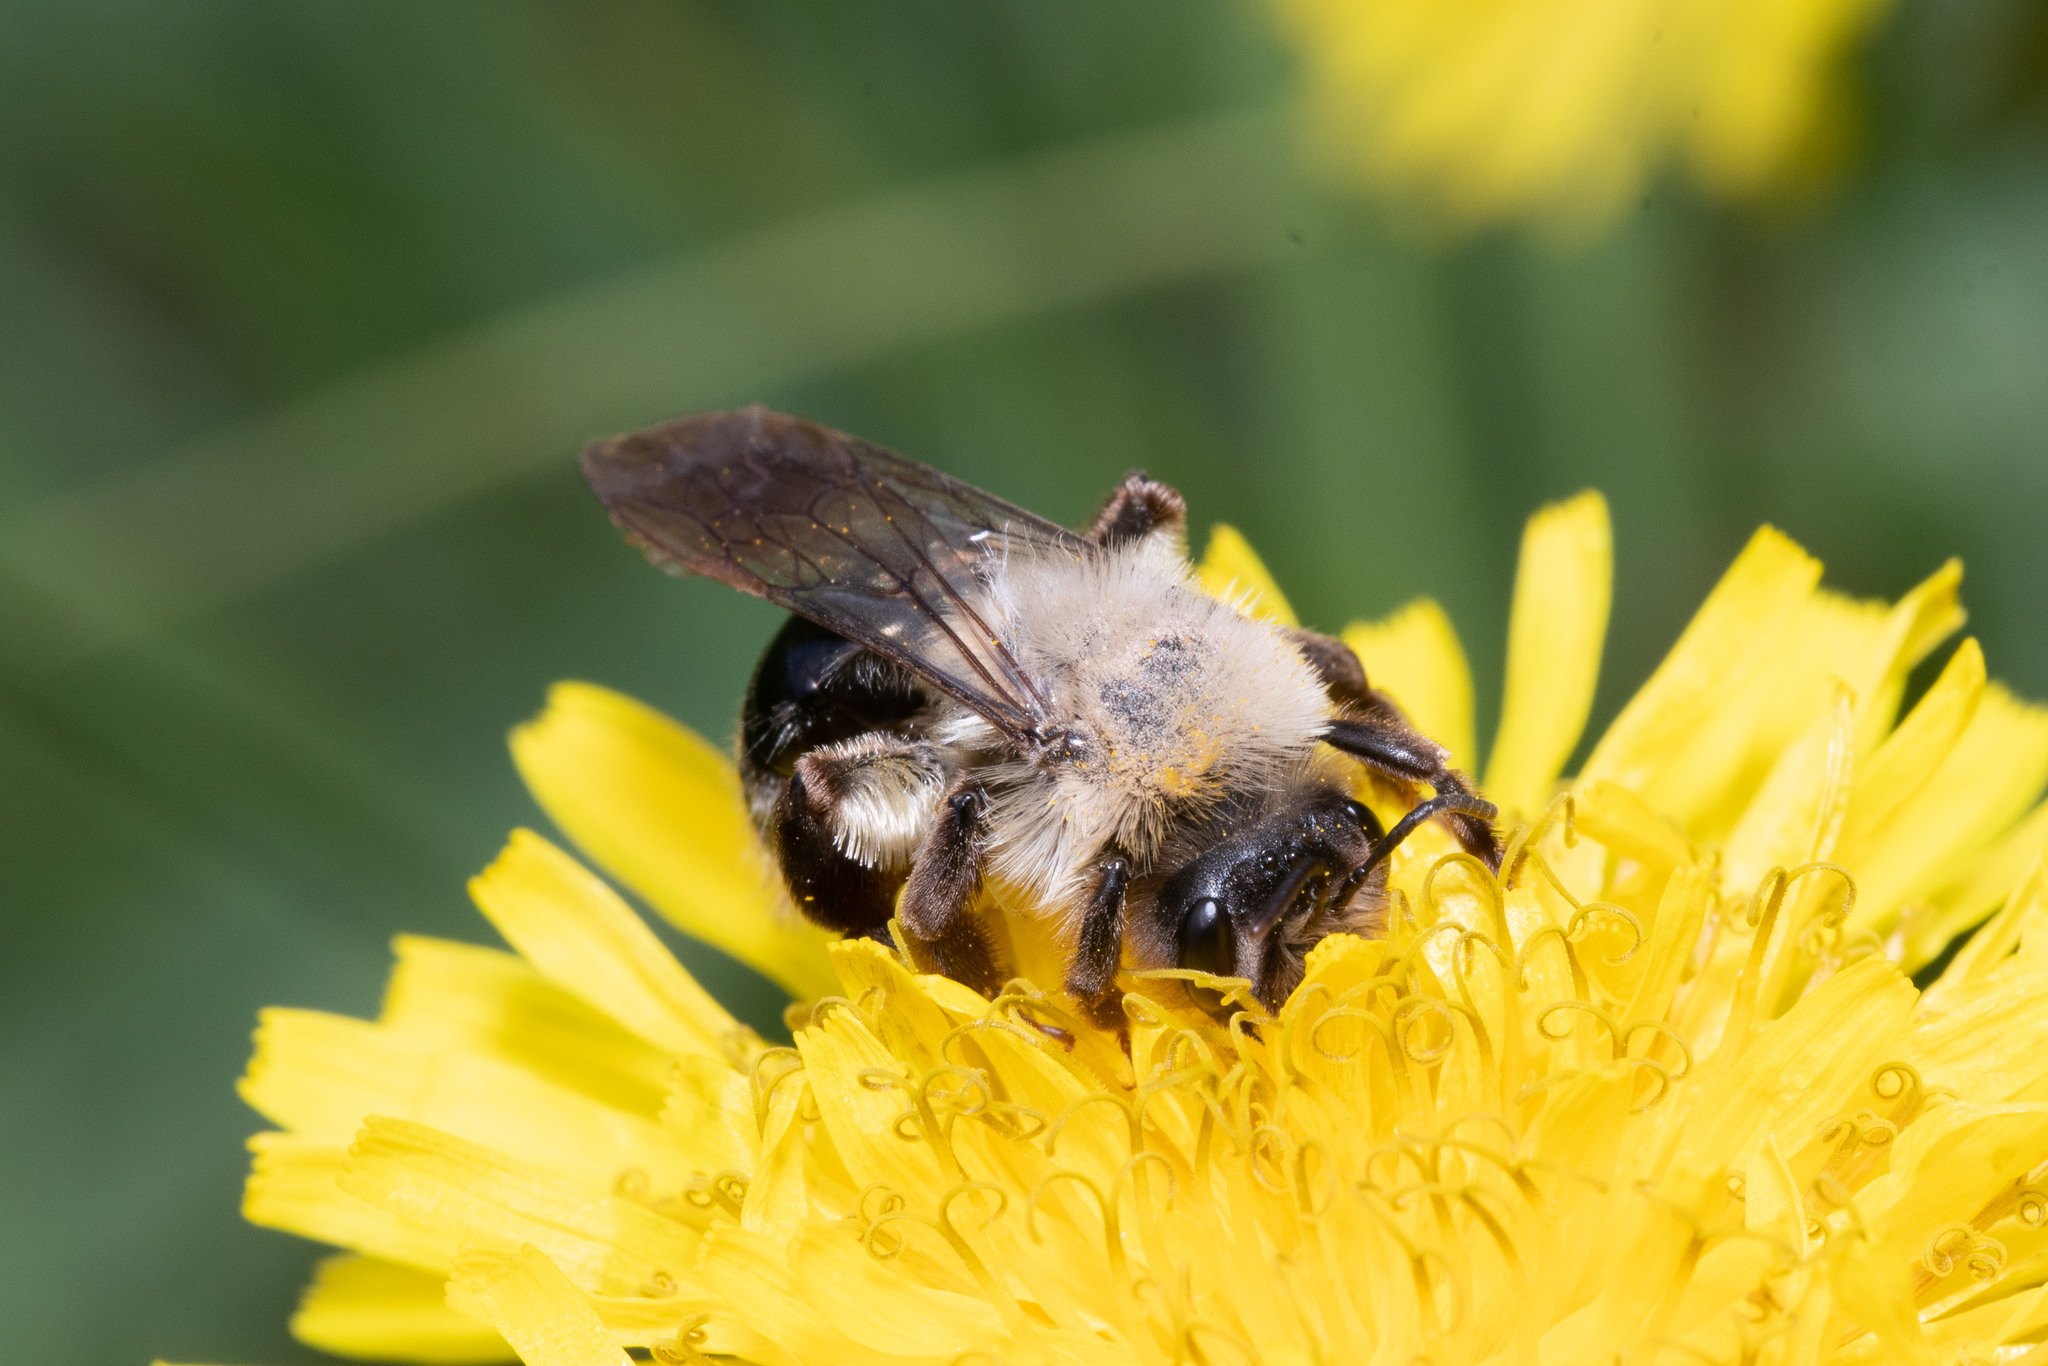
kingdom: Animalia
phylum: Arthropoda
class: Insecta
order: Hymenoptera
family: Andrenidae
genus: Andrena
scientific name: Andrena vaga
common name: Grey-backed mining bee
